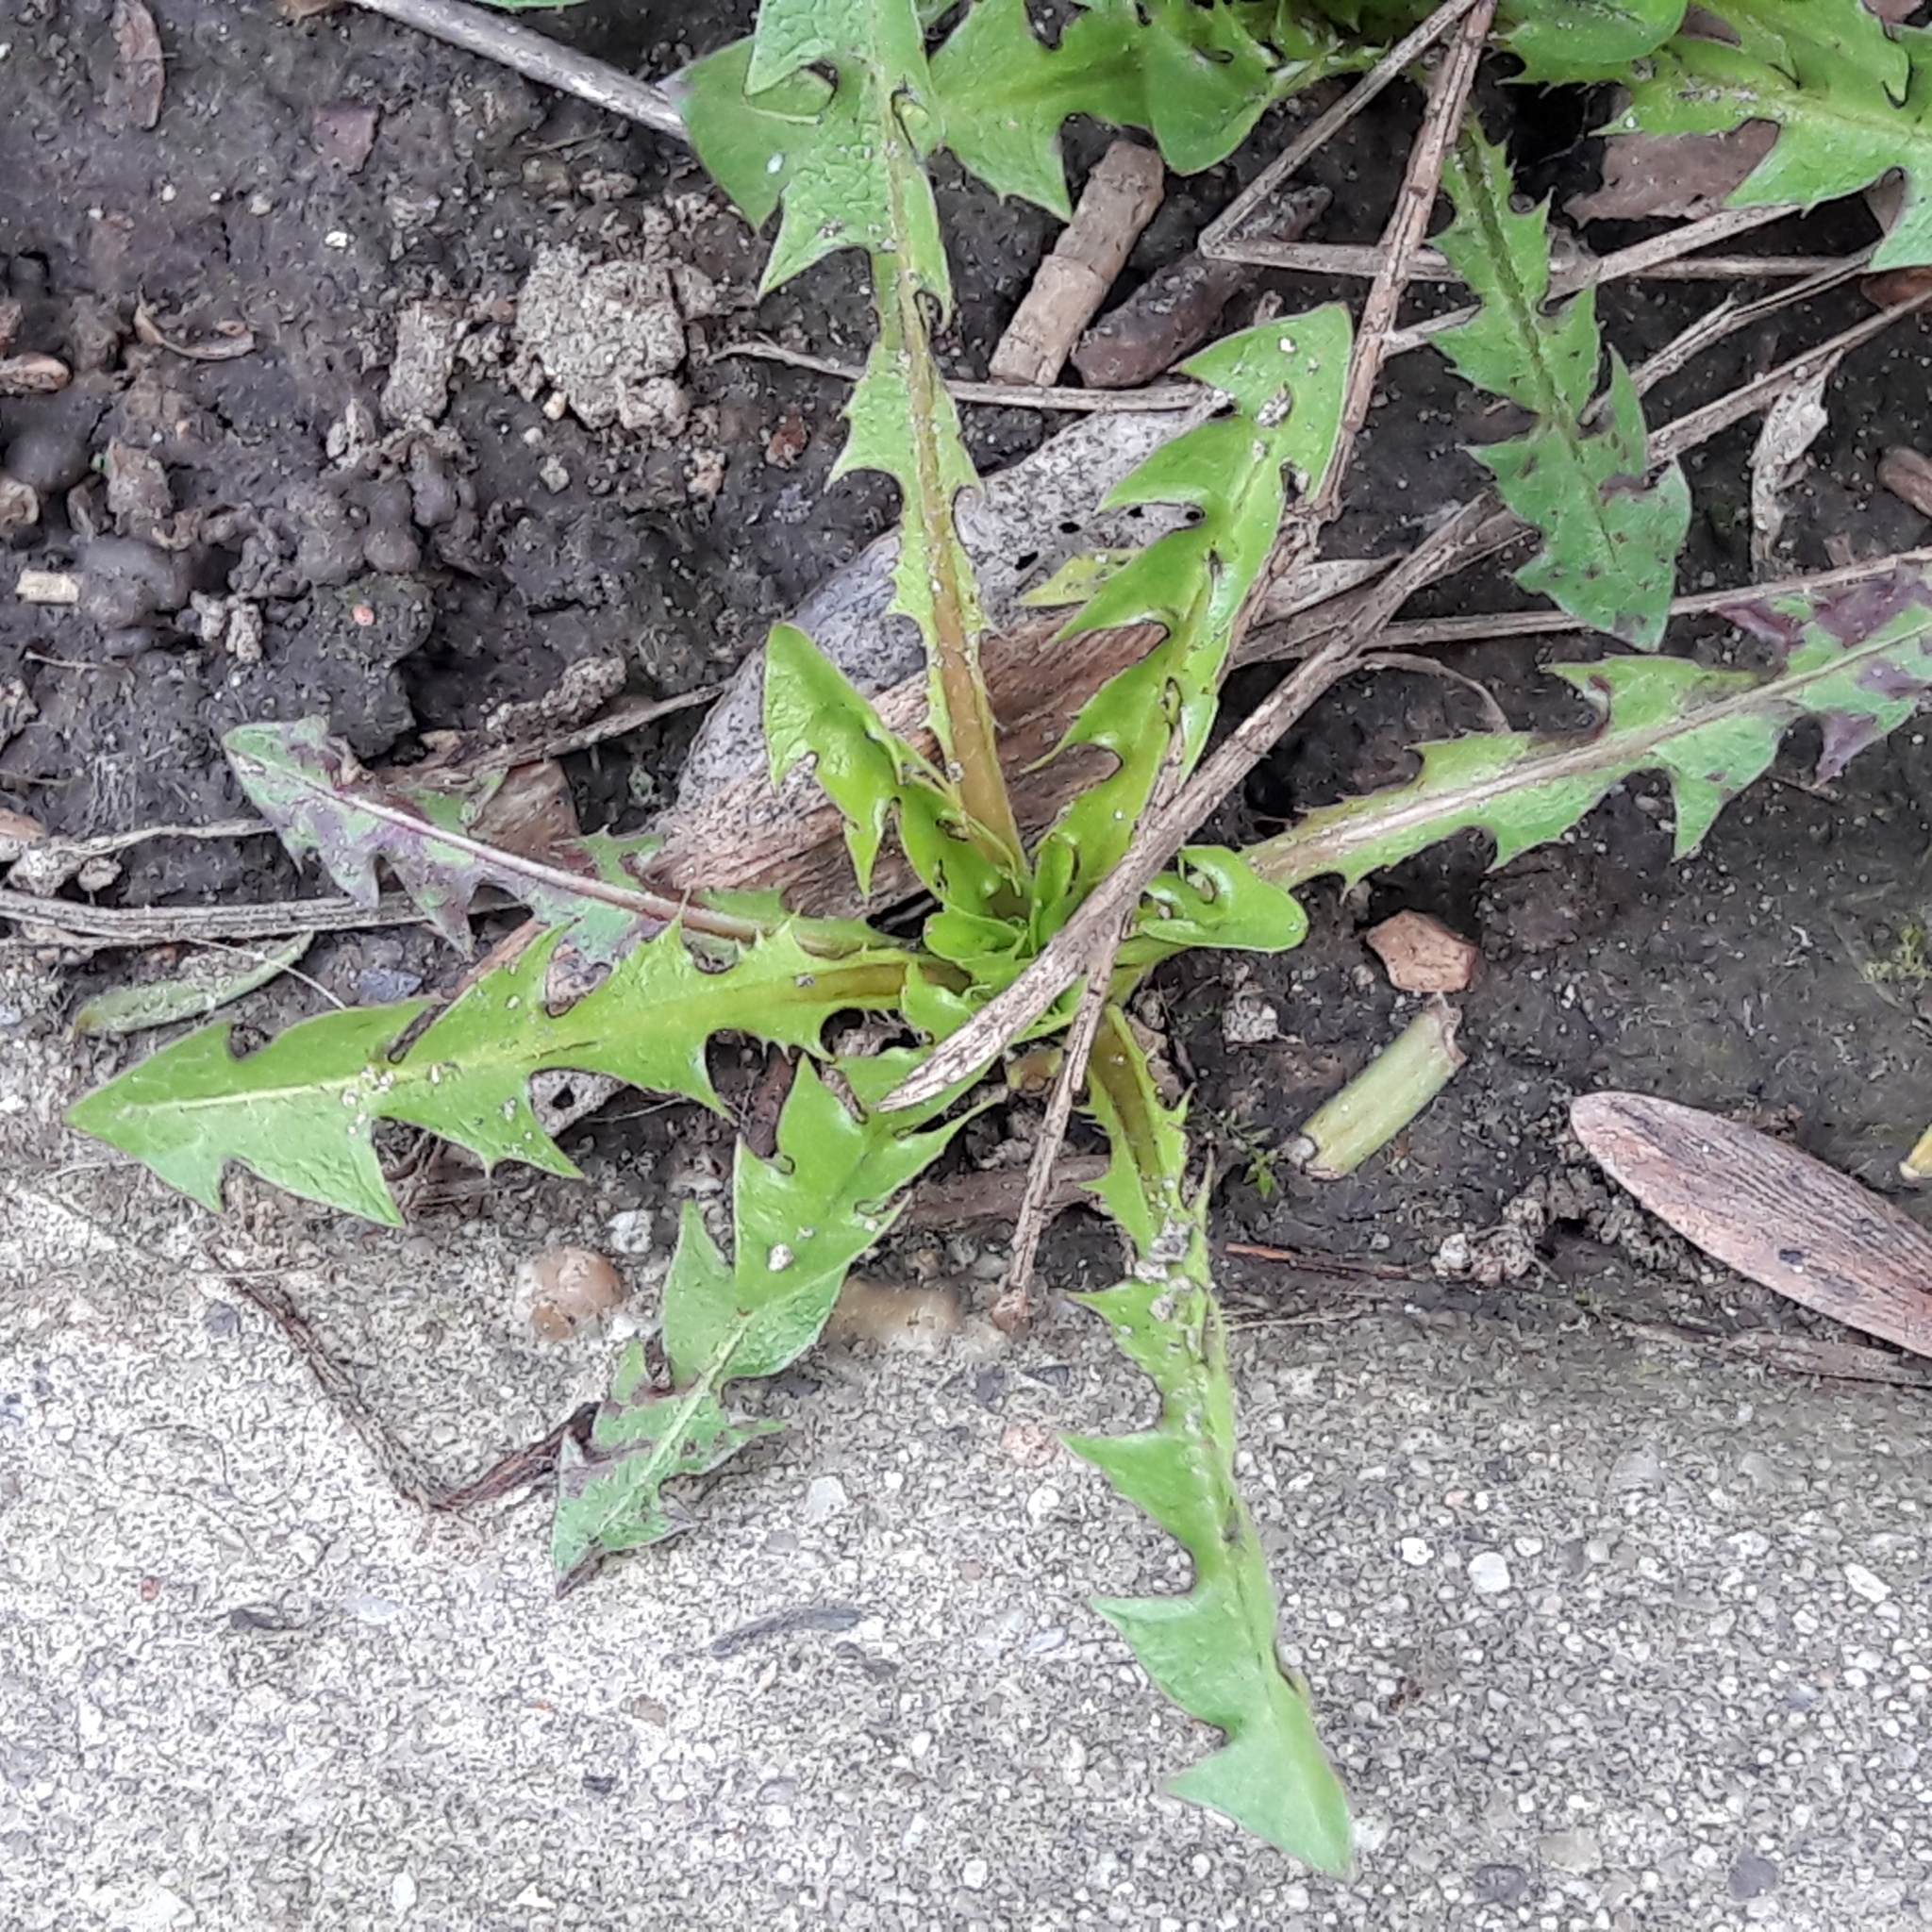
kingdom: Plantae
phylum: Tracheophyta
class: Magnoliopsida
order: Asterales
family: Asteraceae
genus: Taraxacum
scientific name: Taraxacum officinale
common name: Common dandelion
